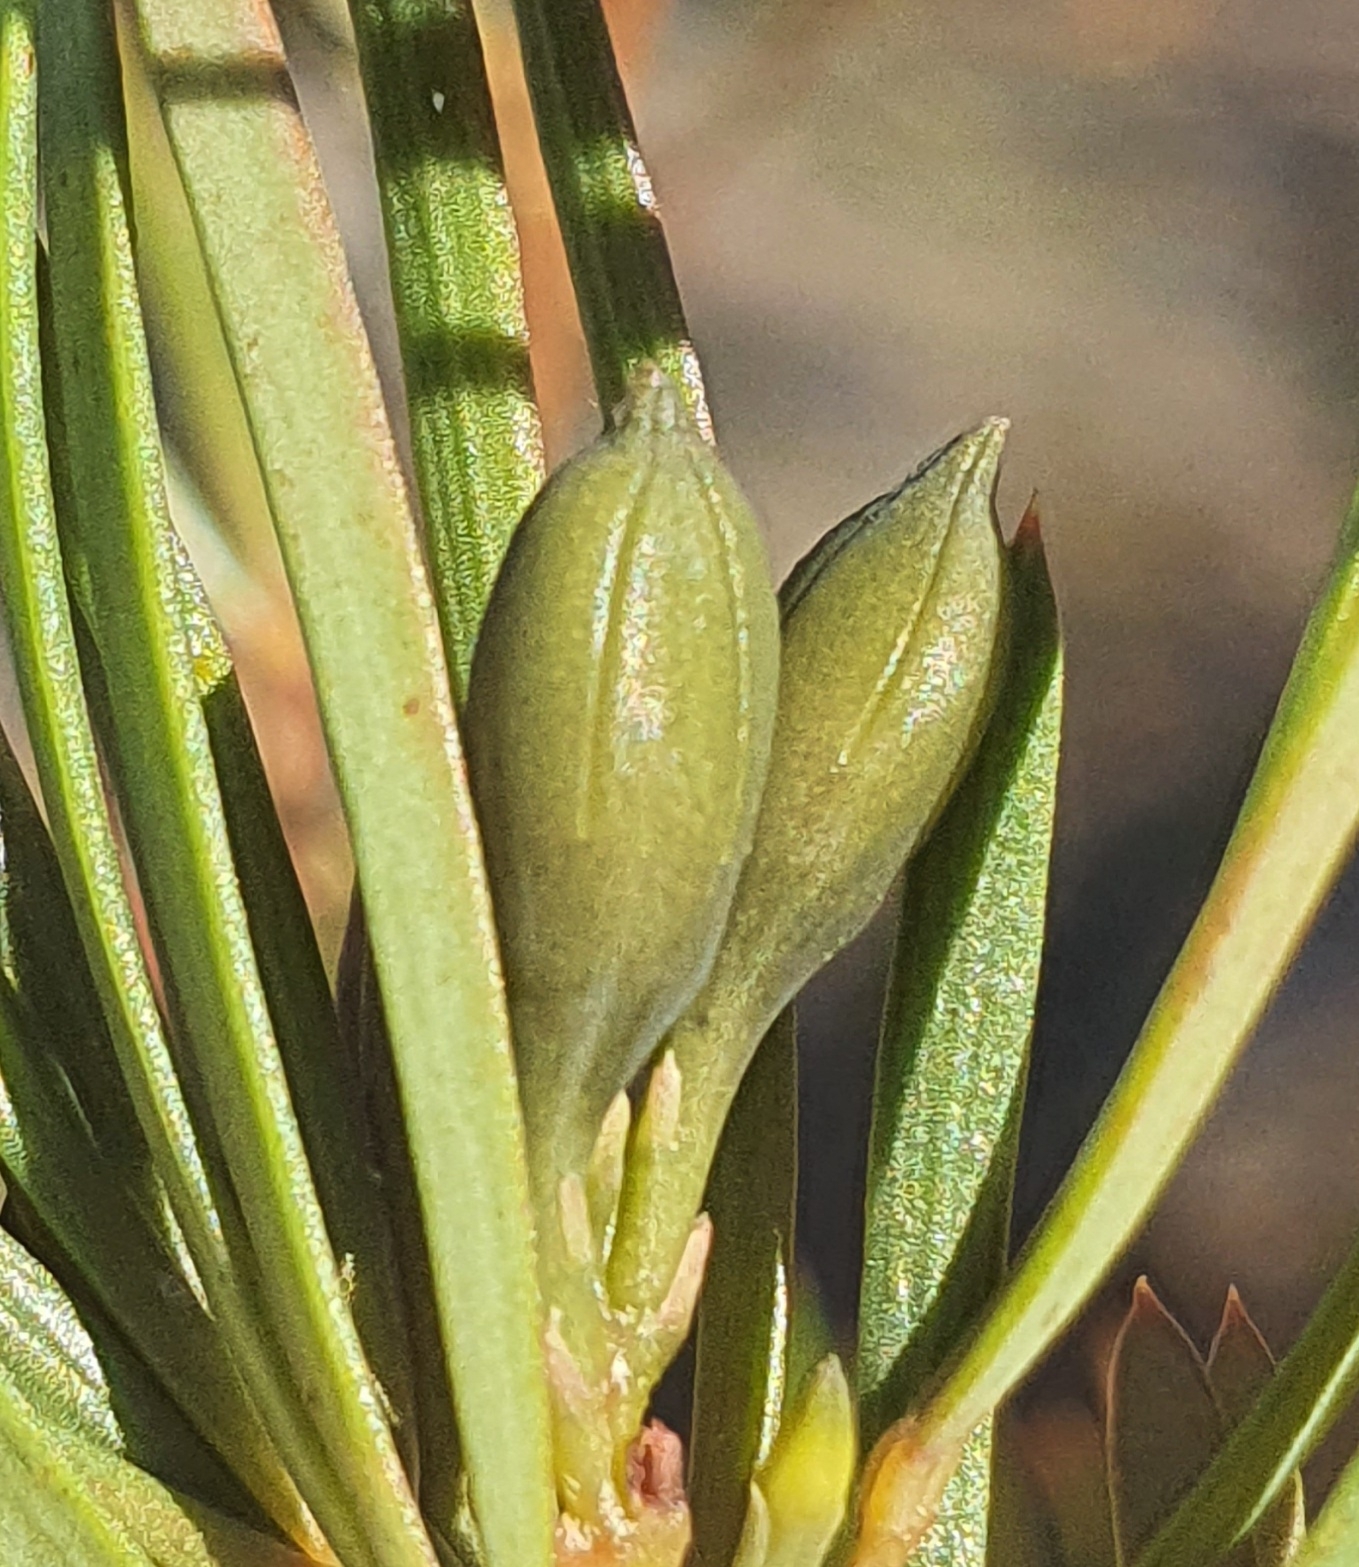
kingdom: Plantae
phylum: Tracheophyta
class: Magnoliopsida
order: Fabales
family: Fabaceae
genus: Gompholobium
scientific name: Gompholobium latifolium
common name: Broadleaf wedge-pea
